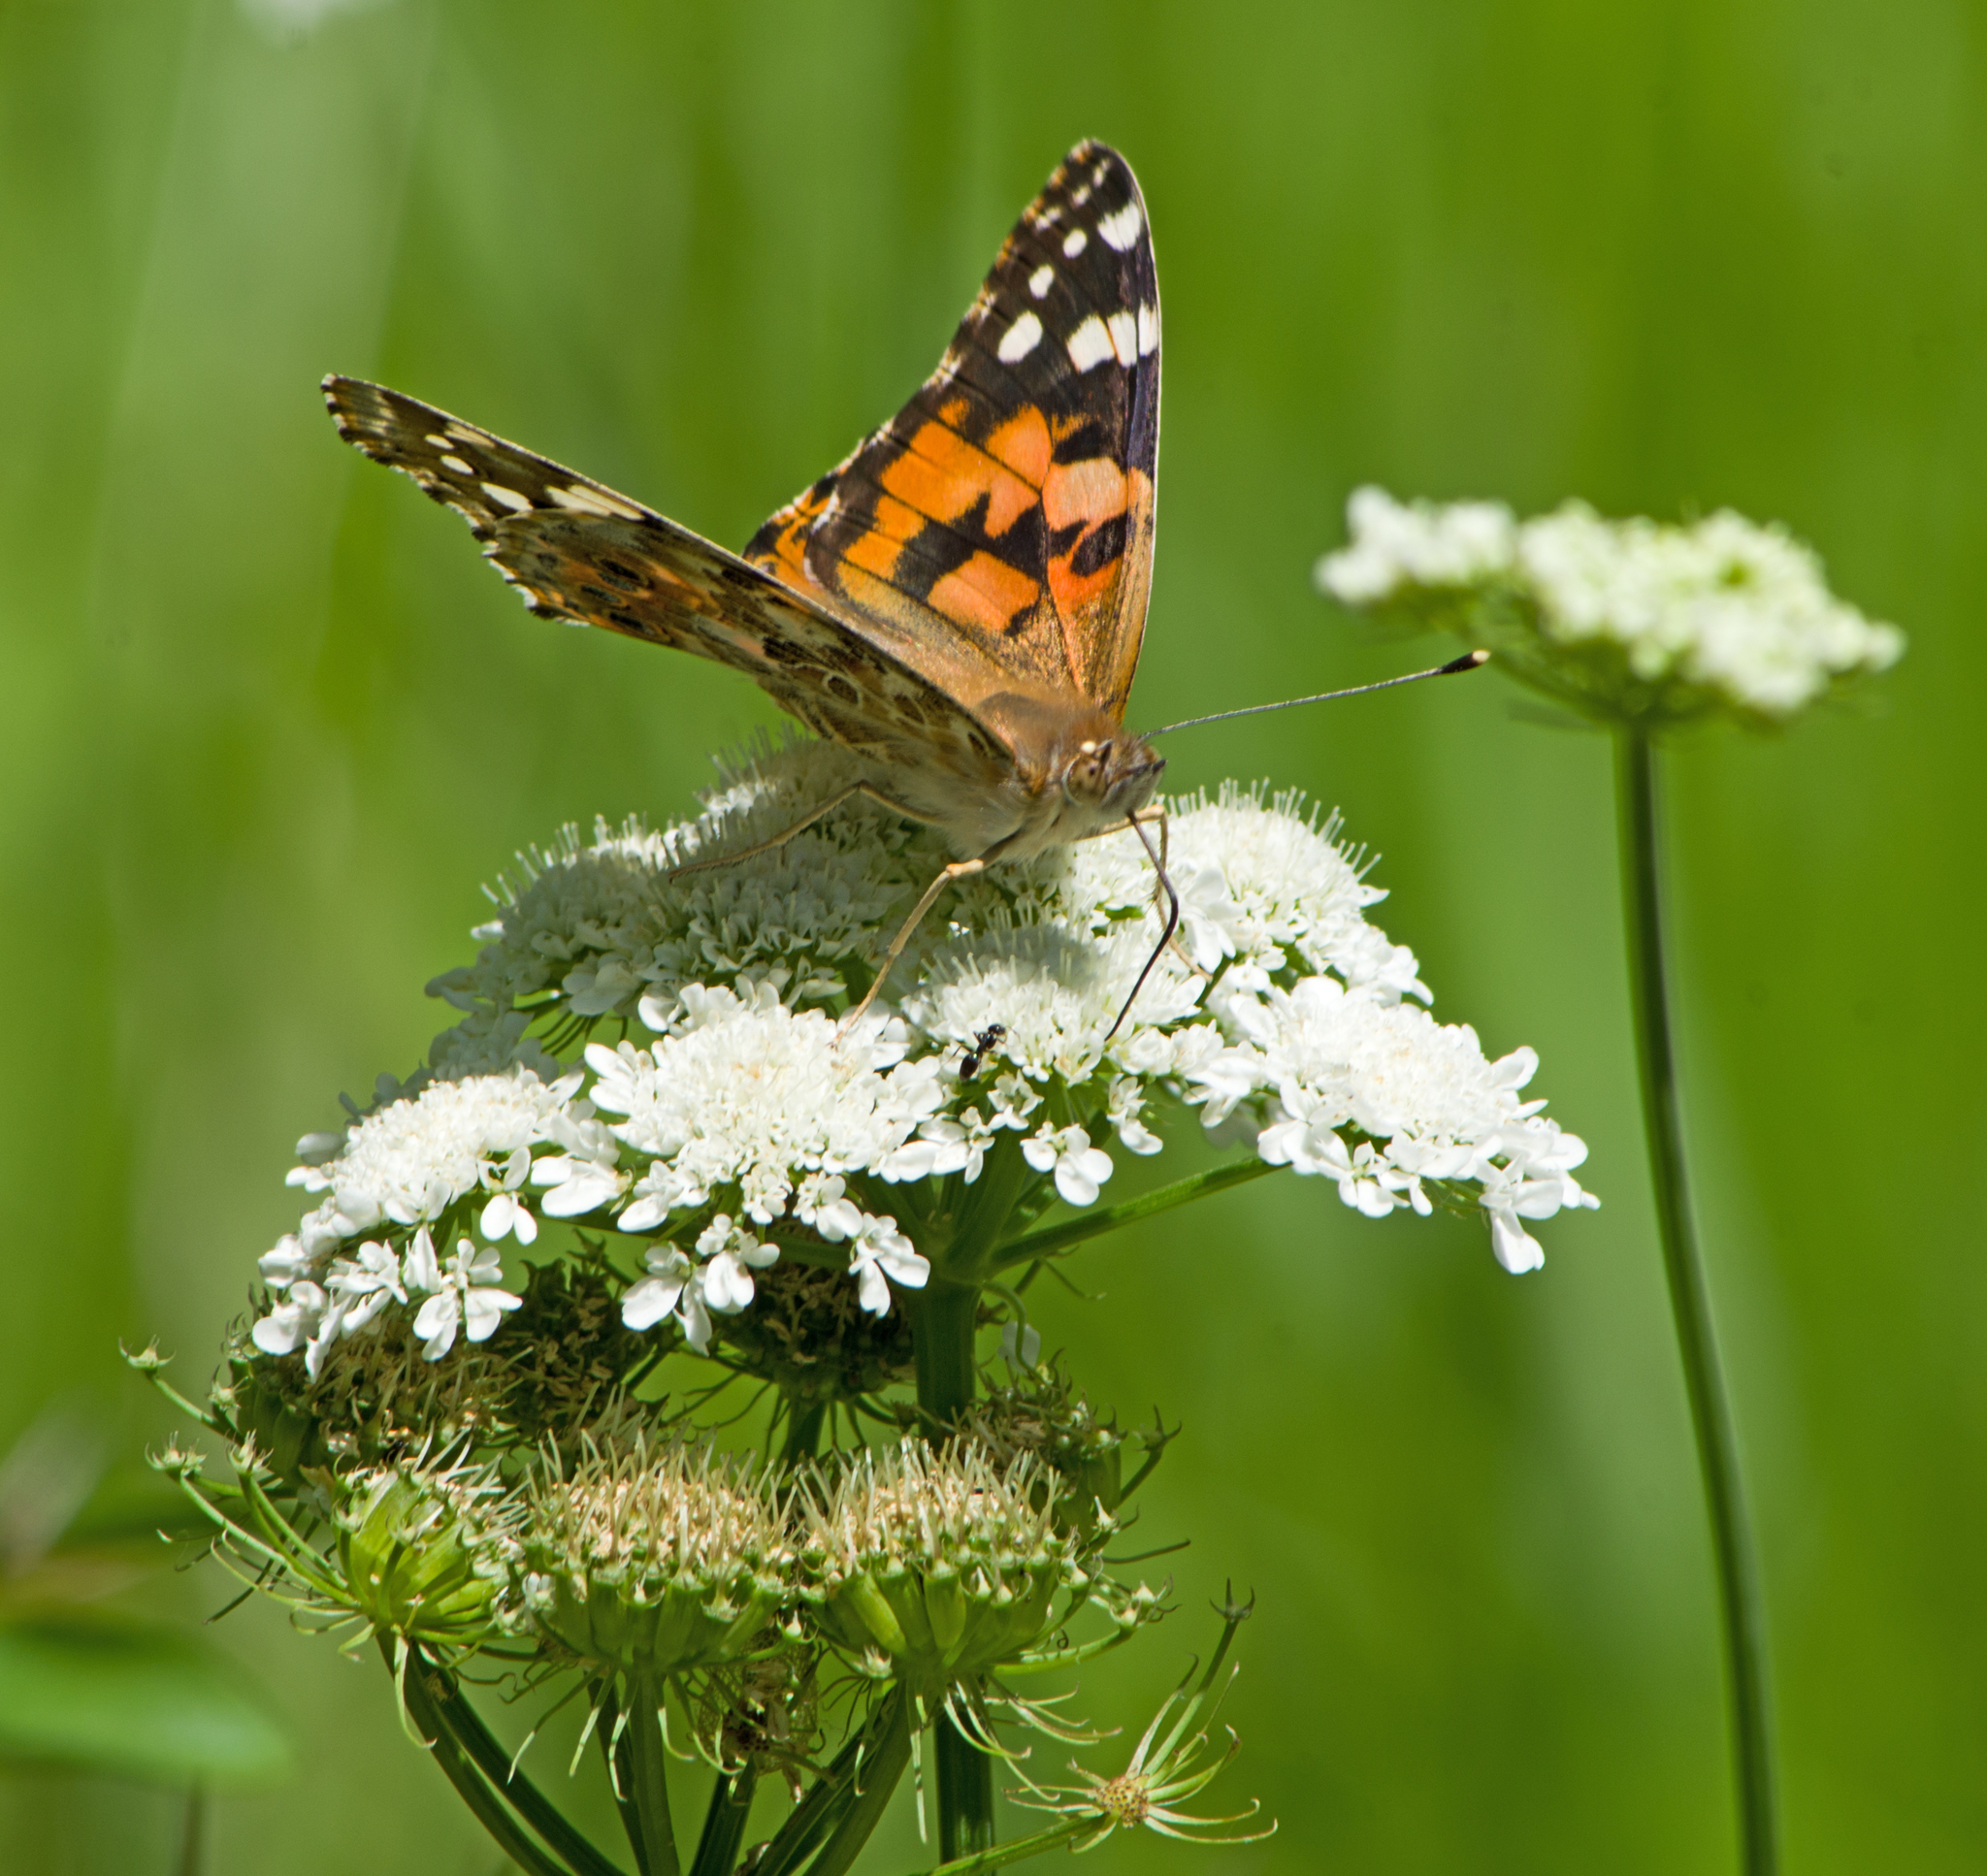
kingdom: Animalia
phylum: Arthropoda
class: Insecta
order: Lepidoptera
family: Nymphalidae
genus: Vanessa
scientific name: Vanessa cardui
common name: Painted lady
